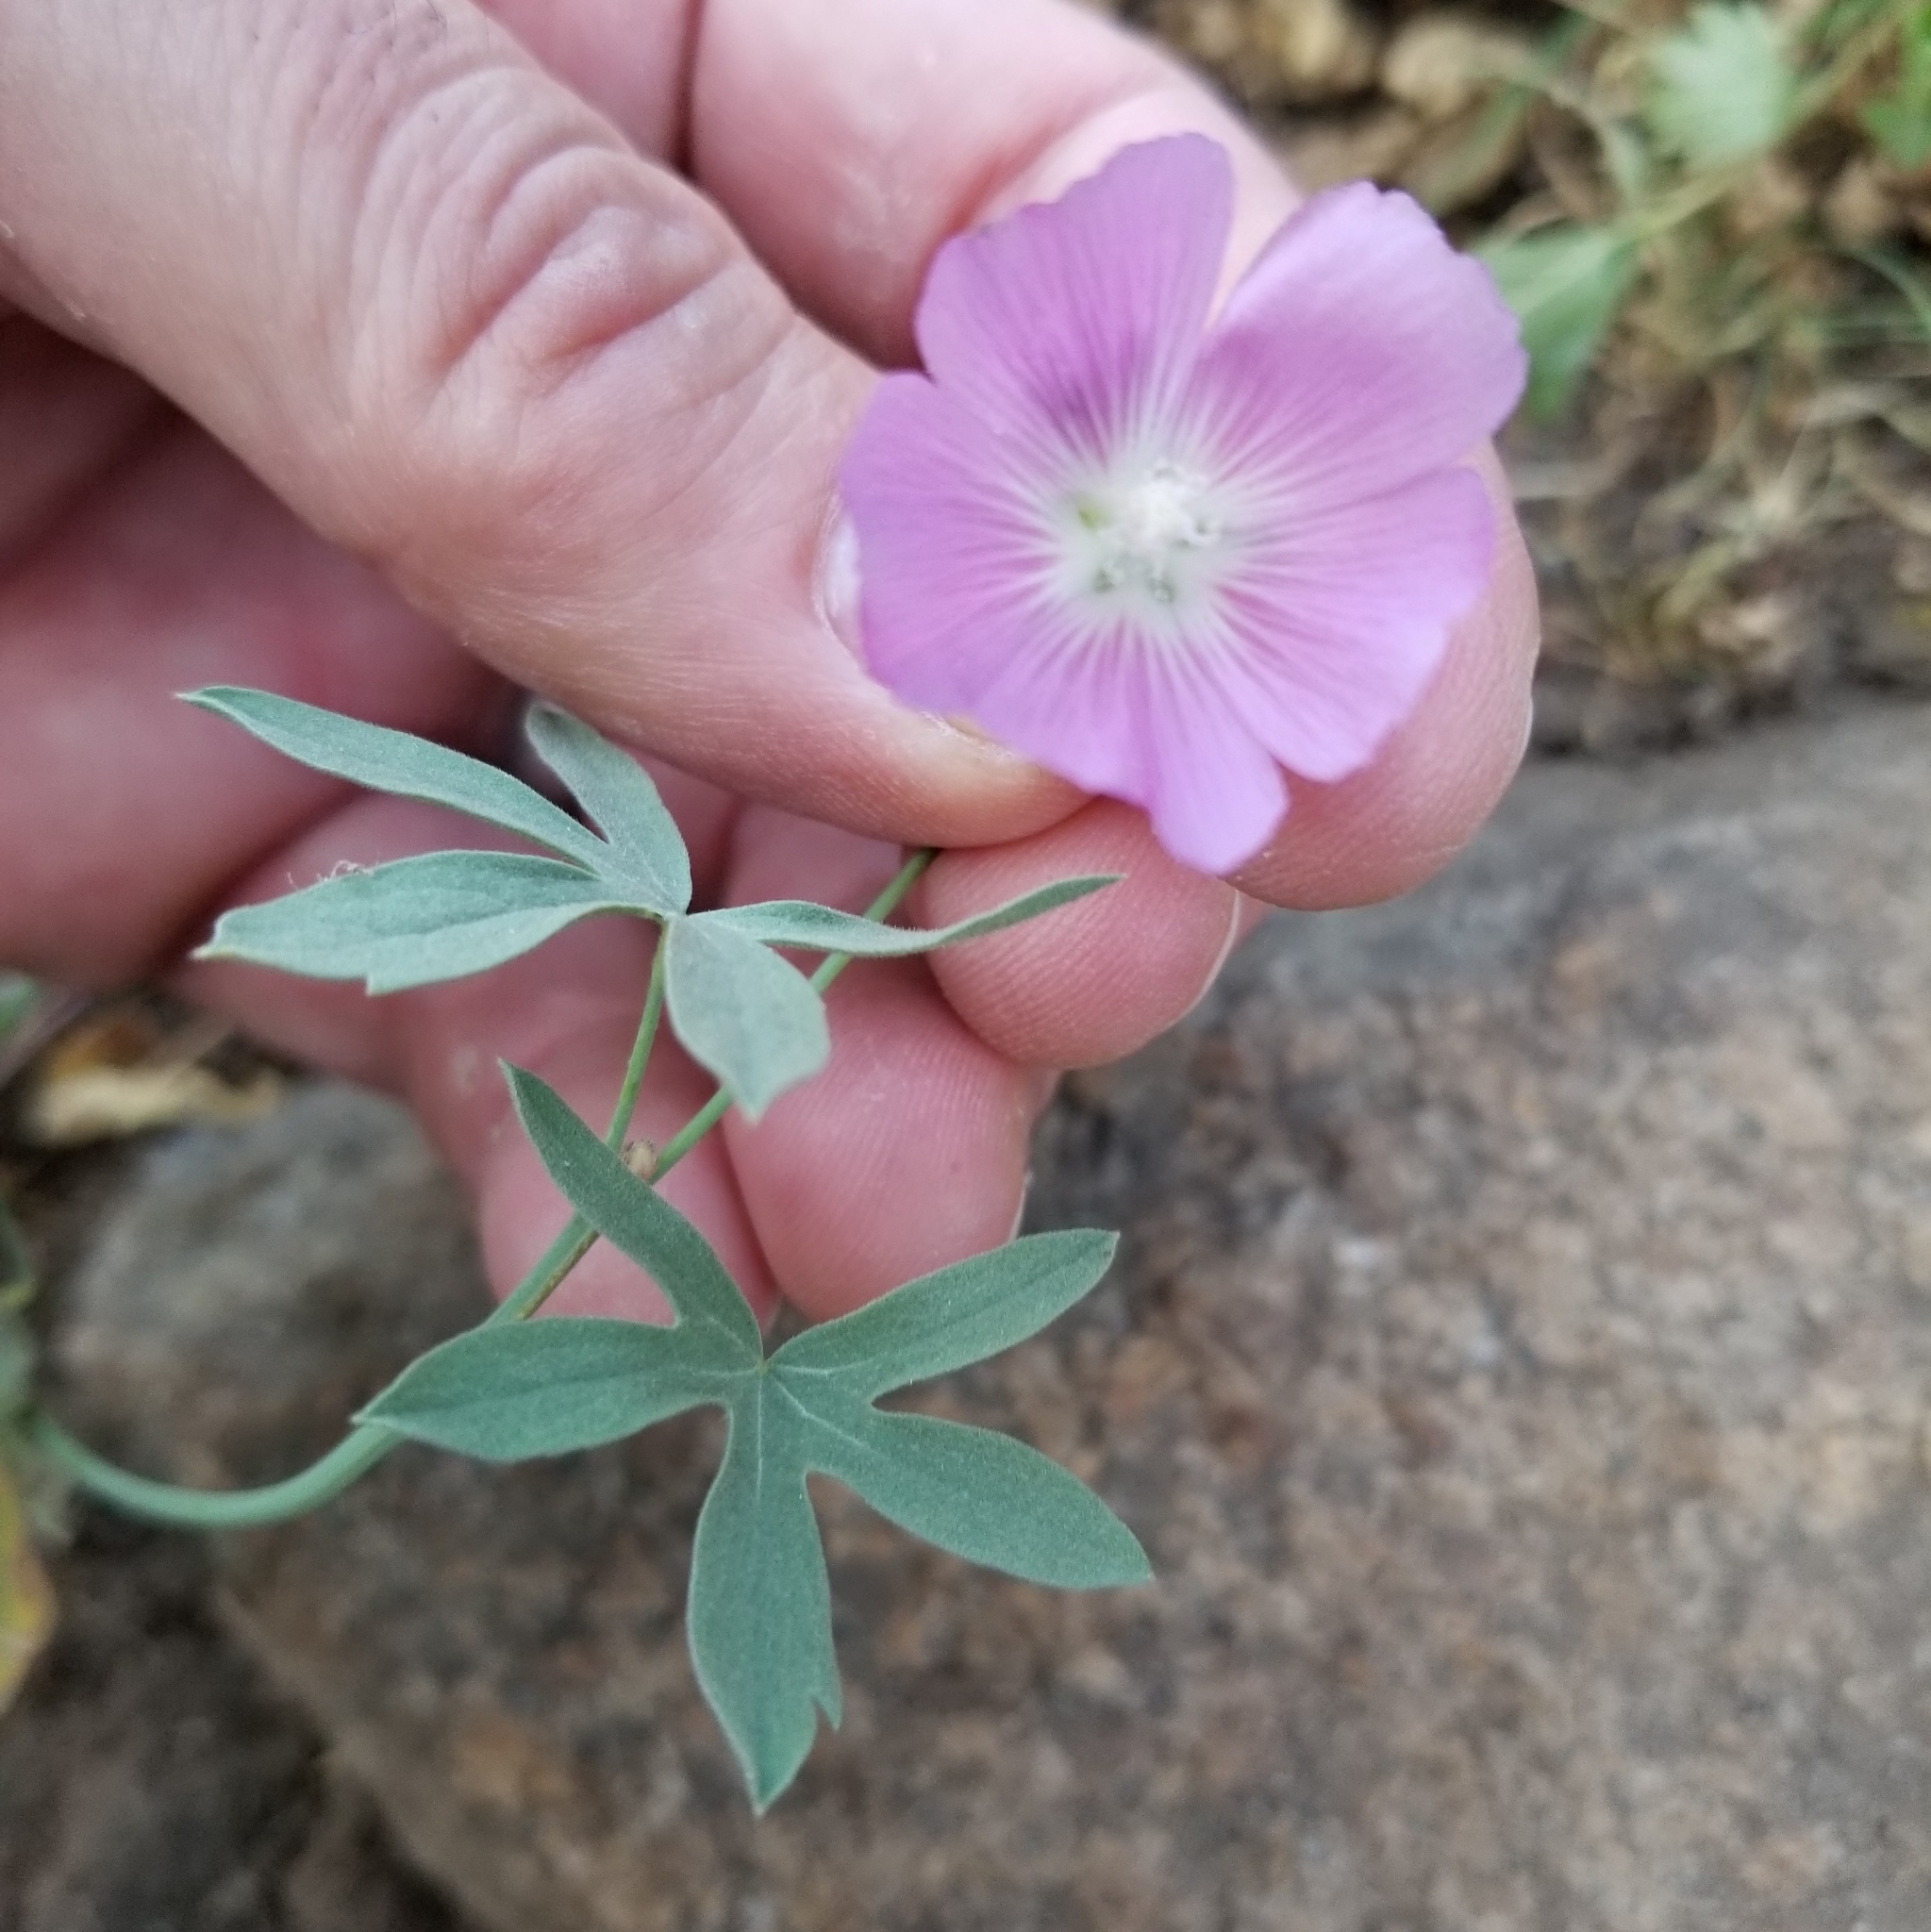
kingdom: Plantae
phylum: Tracheophyta
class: Magnoliopsida
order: Malvales
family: Malvaceae
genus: Sidalcea
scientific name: Sidalcea glaucescens
